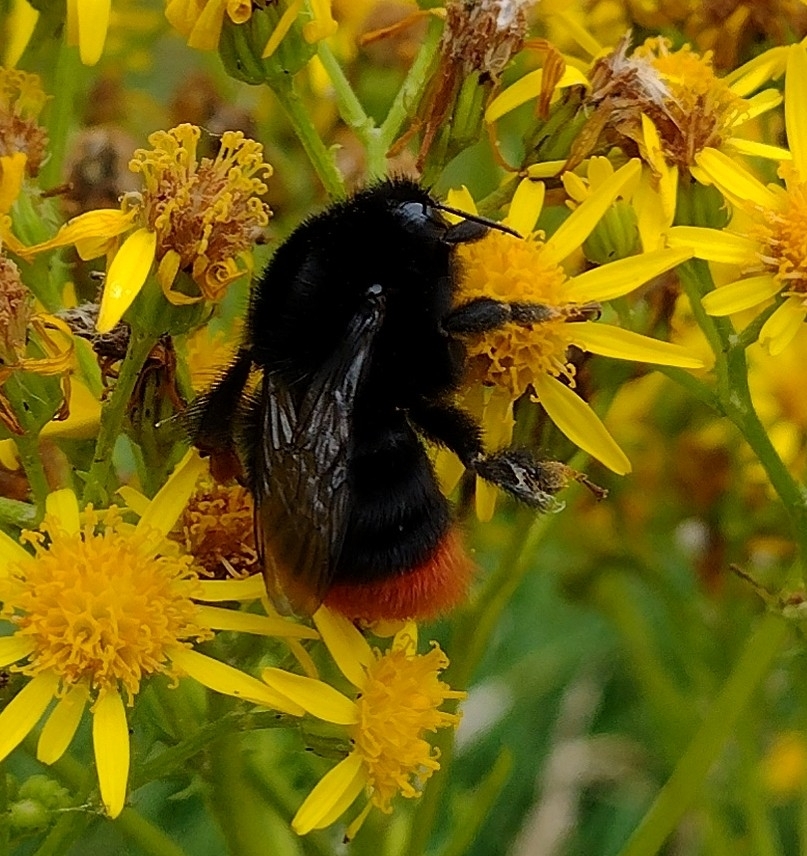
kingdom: Animalia
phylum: Arthropoda
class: Insecta
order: Hymenoptera
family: Apidae
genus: Bombus
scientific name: Bombus lapidarius
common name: Large red-tailed humble-bee
